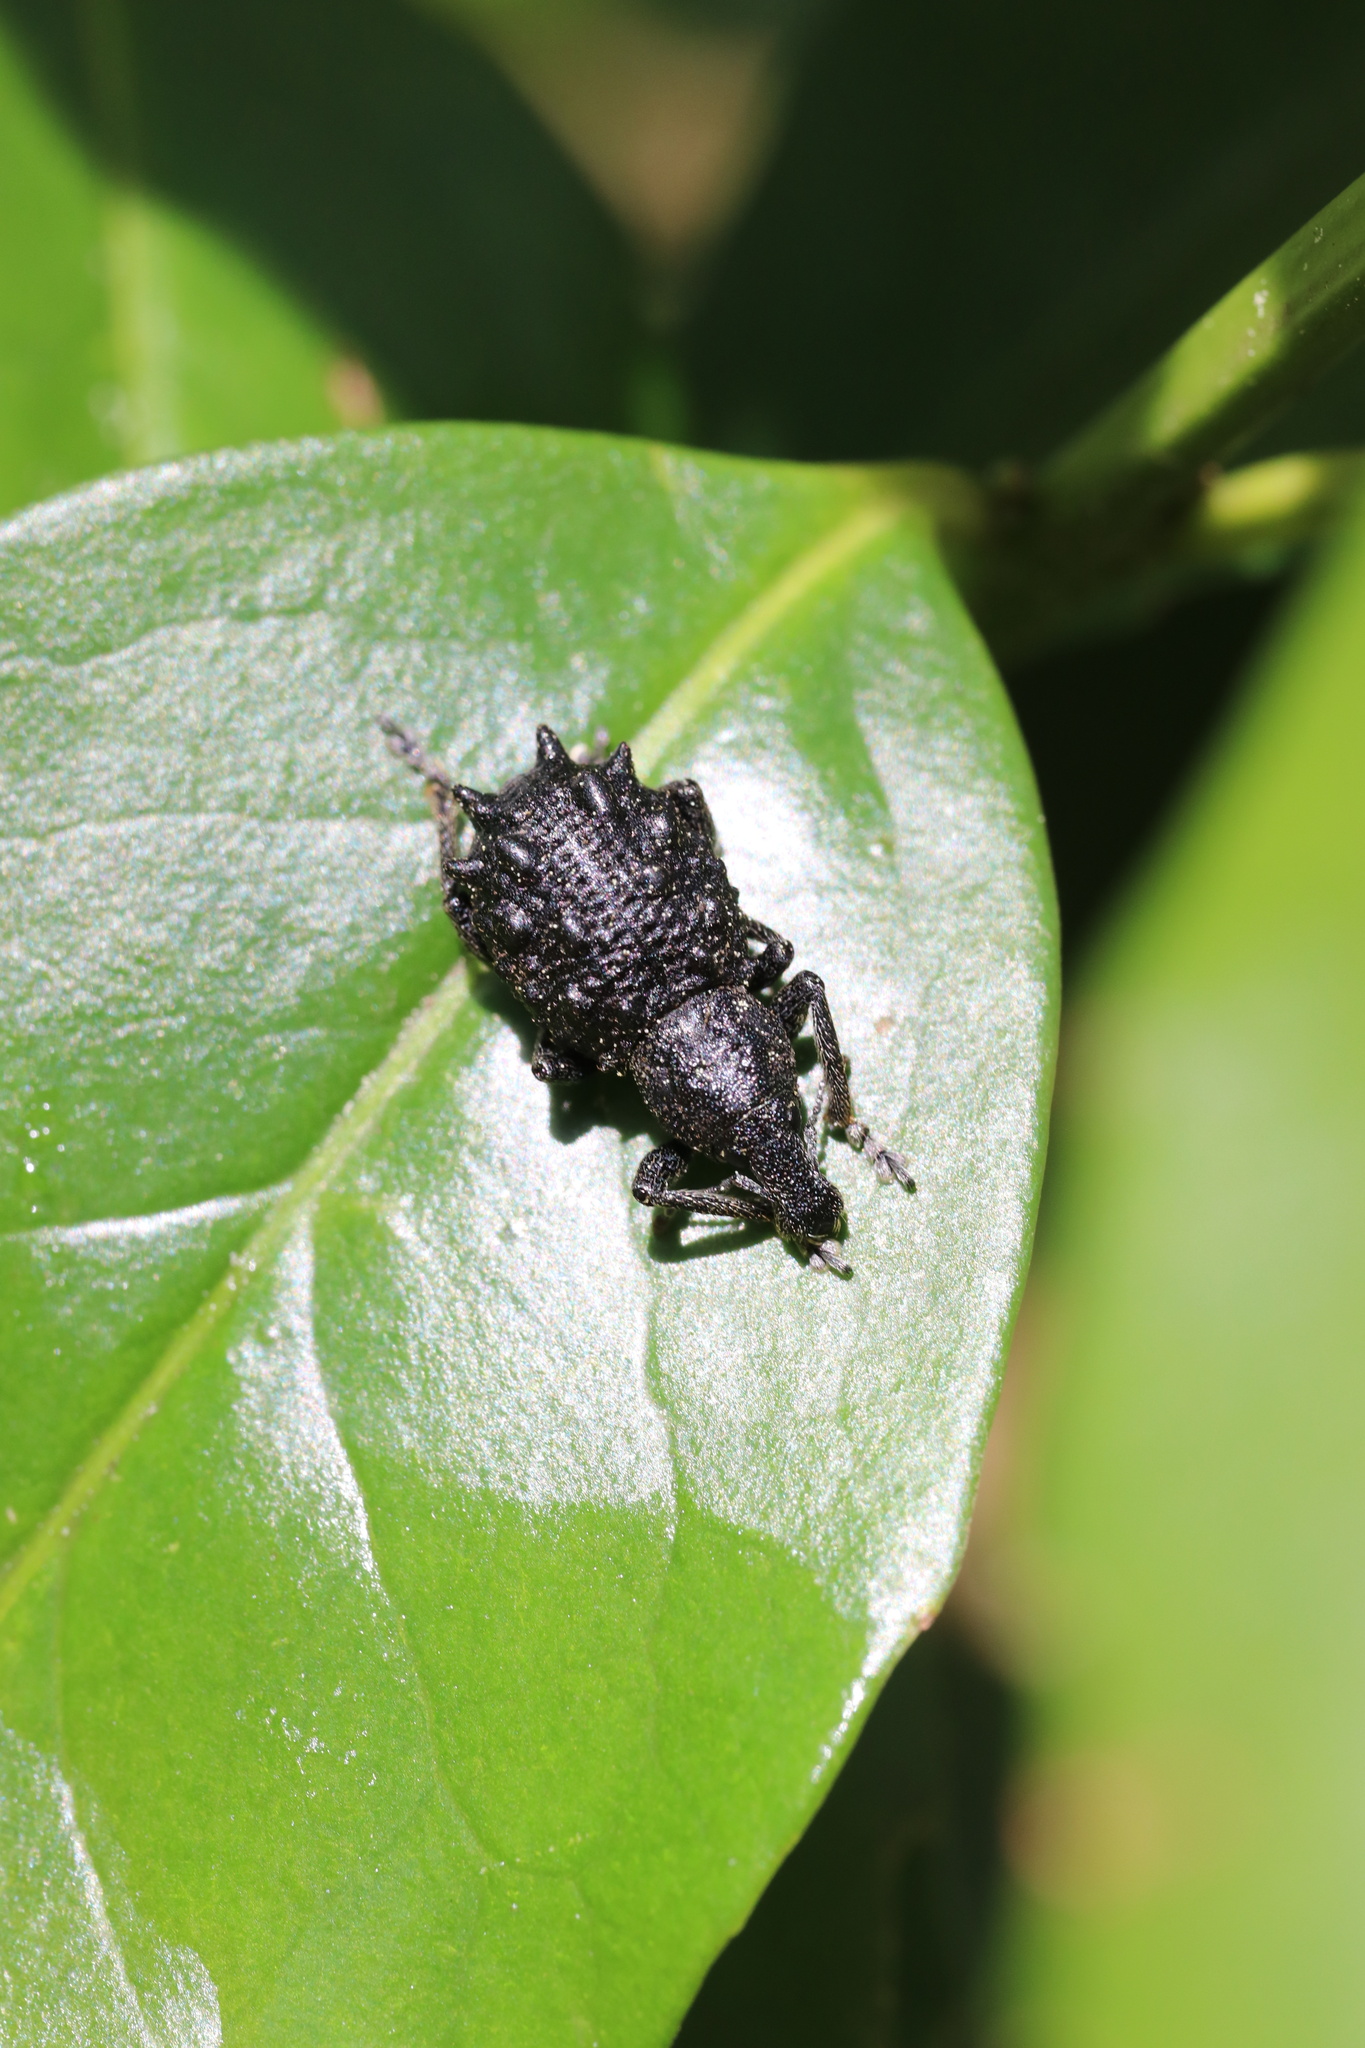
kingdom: Animalia
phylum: Arthropoda
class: Insecta
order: Coleoptera
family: Curculionidae
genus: Megalometis
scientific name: Megalometis spiniferus
